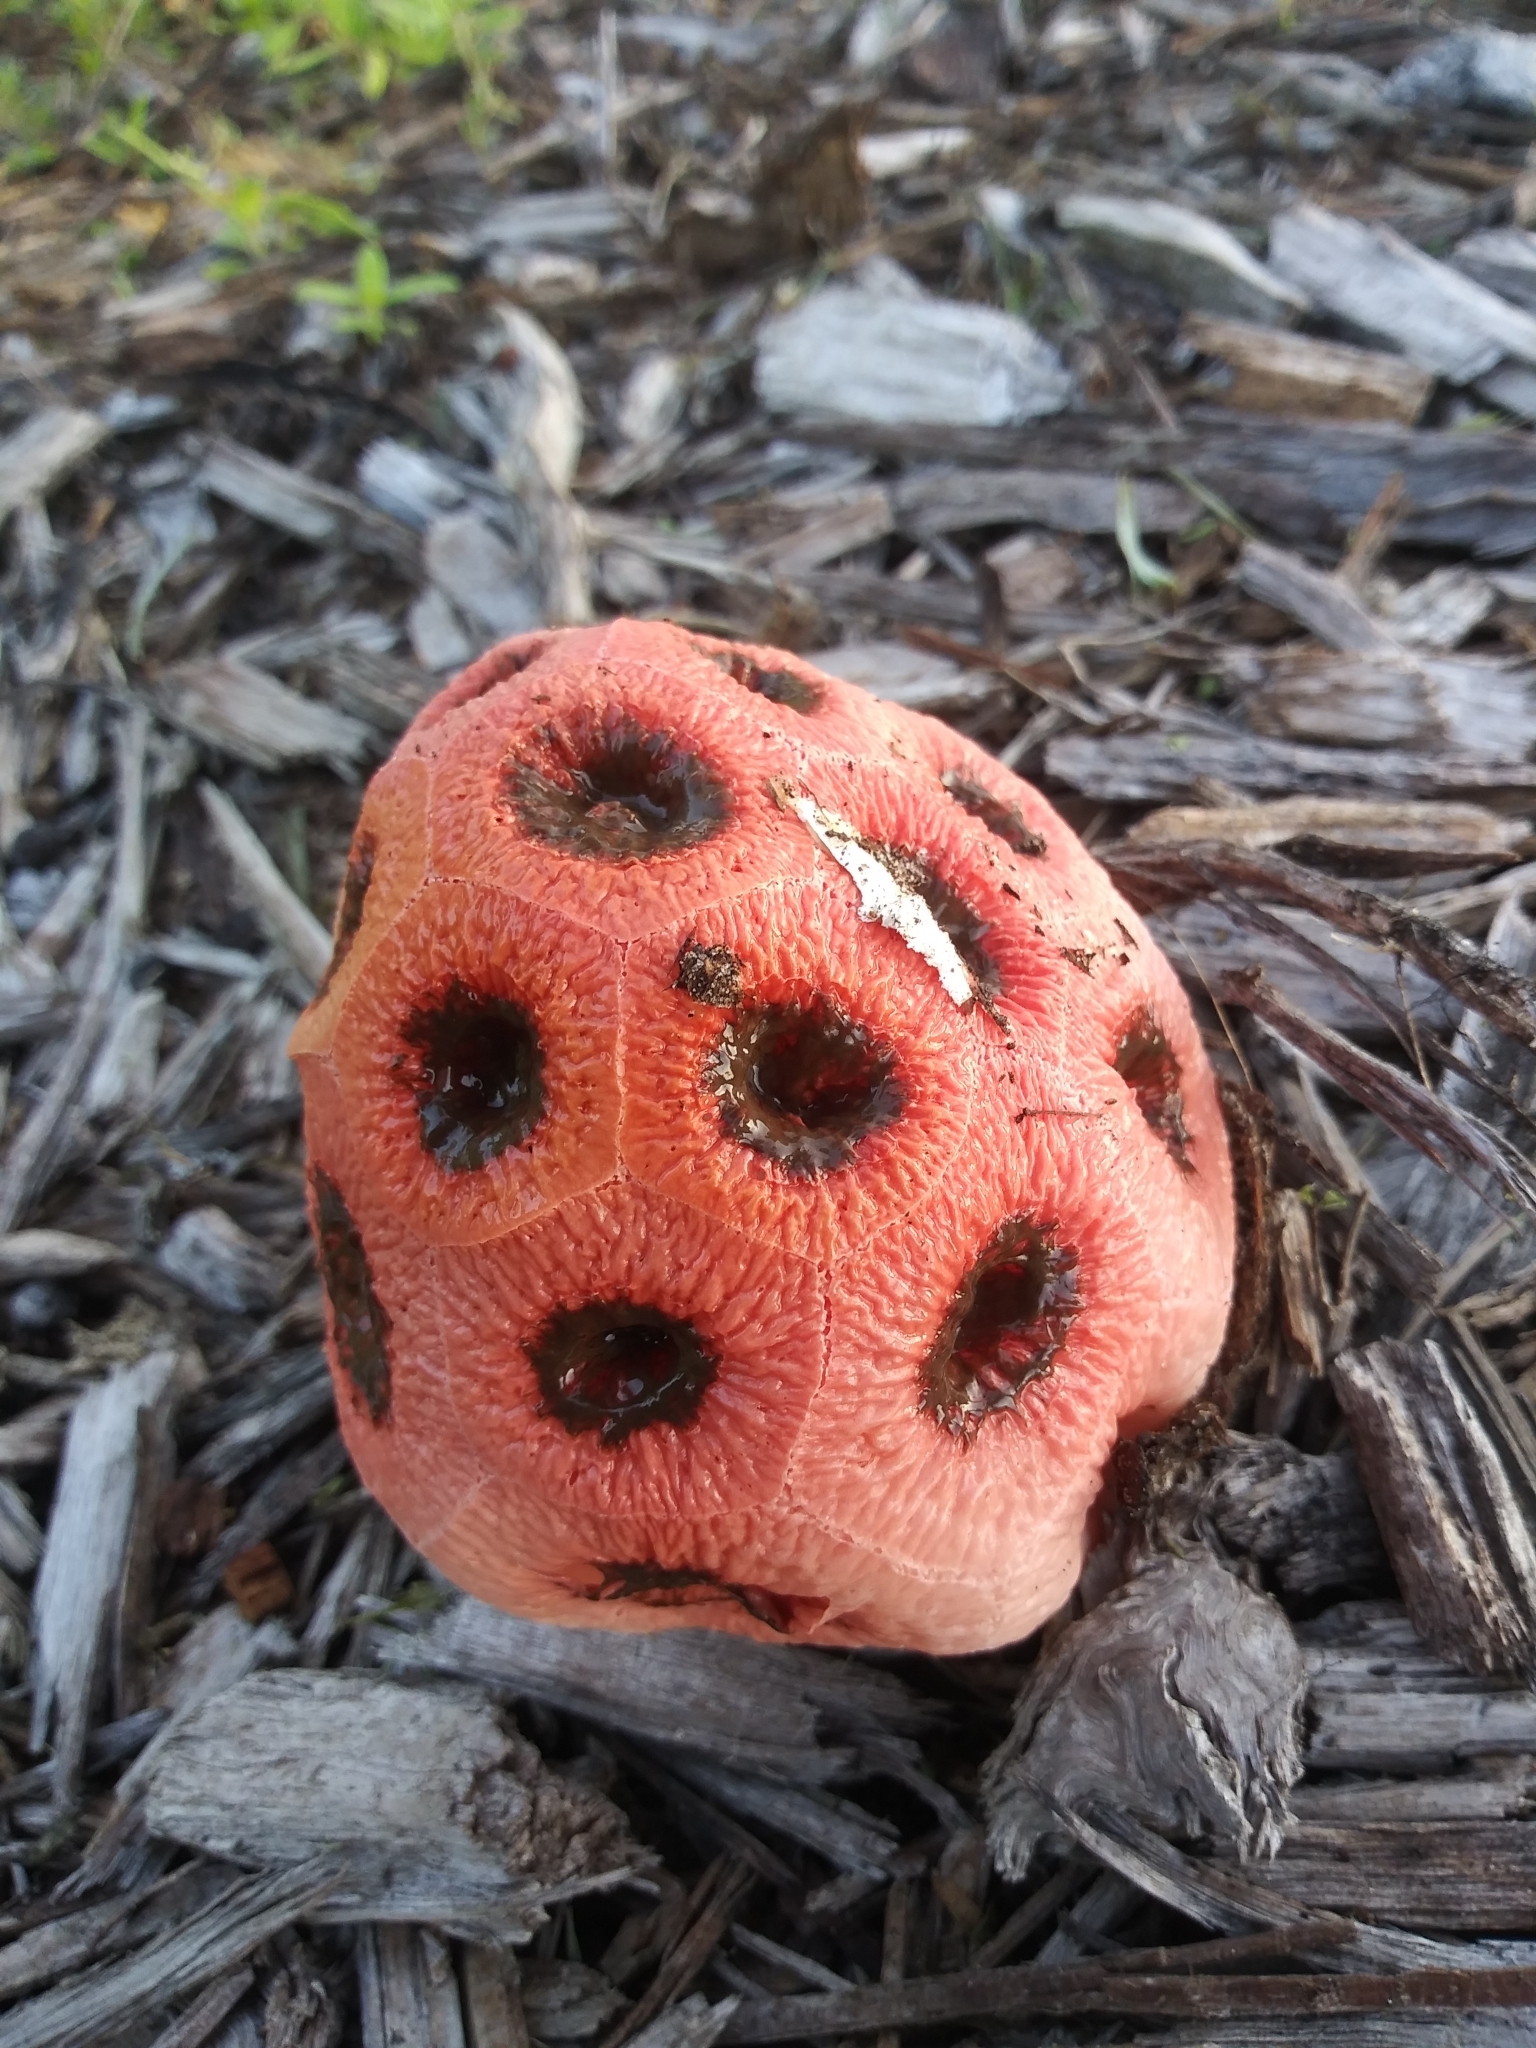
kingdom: Fungi
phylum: Basidiomycota
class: Agaricomycetes
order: Phallales
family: Phallaceae
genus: Clathrus
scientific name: Clathrus crispatus
